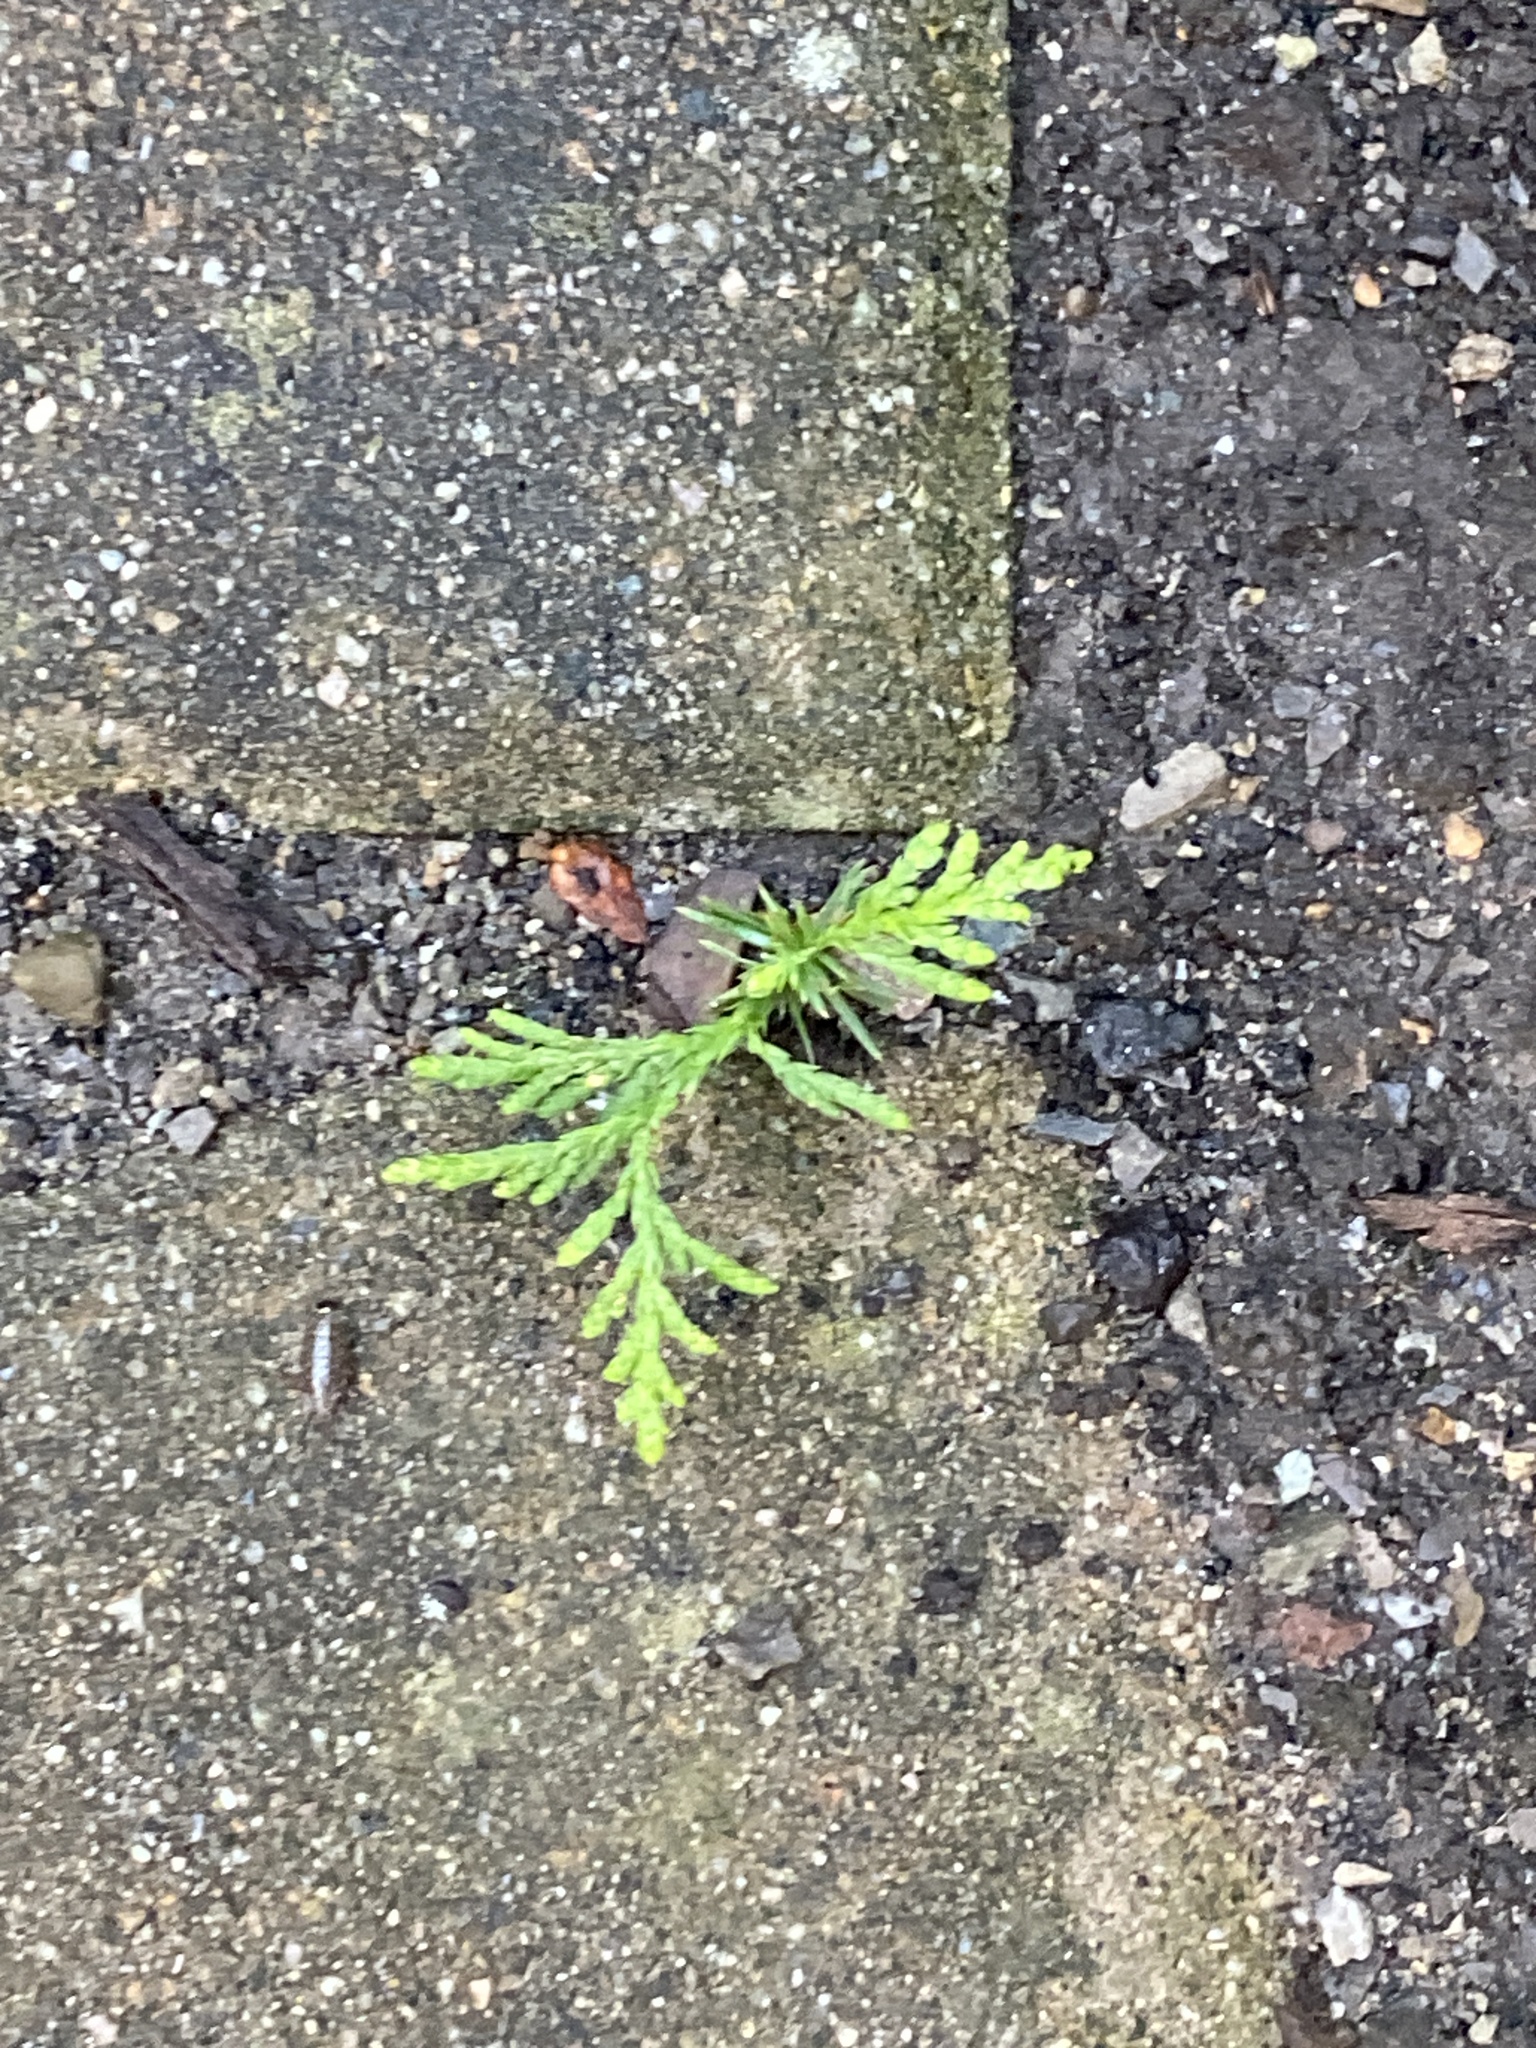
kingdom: Plantae
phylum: Tracheophyta
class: Pinopsida
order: Pinales
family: Cupressaceae
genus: Thuja
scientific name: Thuja occidentalis
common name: Northern white-cedar
